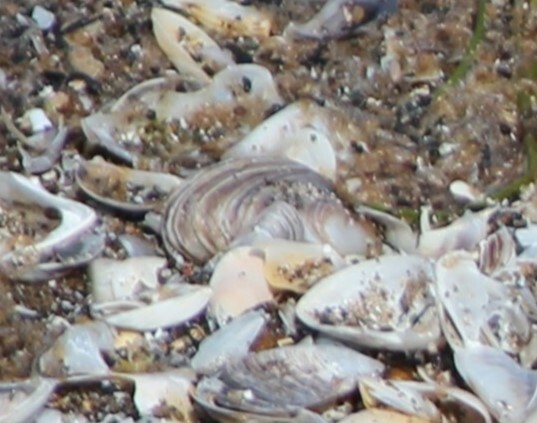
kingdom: Animalia
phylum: Mollusca
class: Bivalvia
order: Myida
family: Dreissenidae
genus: Dreissena
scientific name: Dreissena bugensis
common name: Quagga mussel
